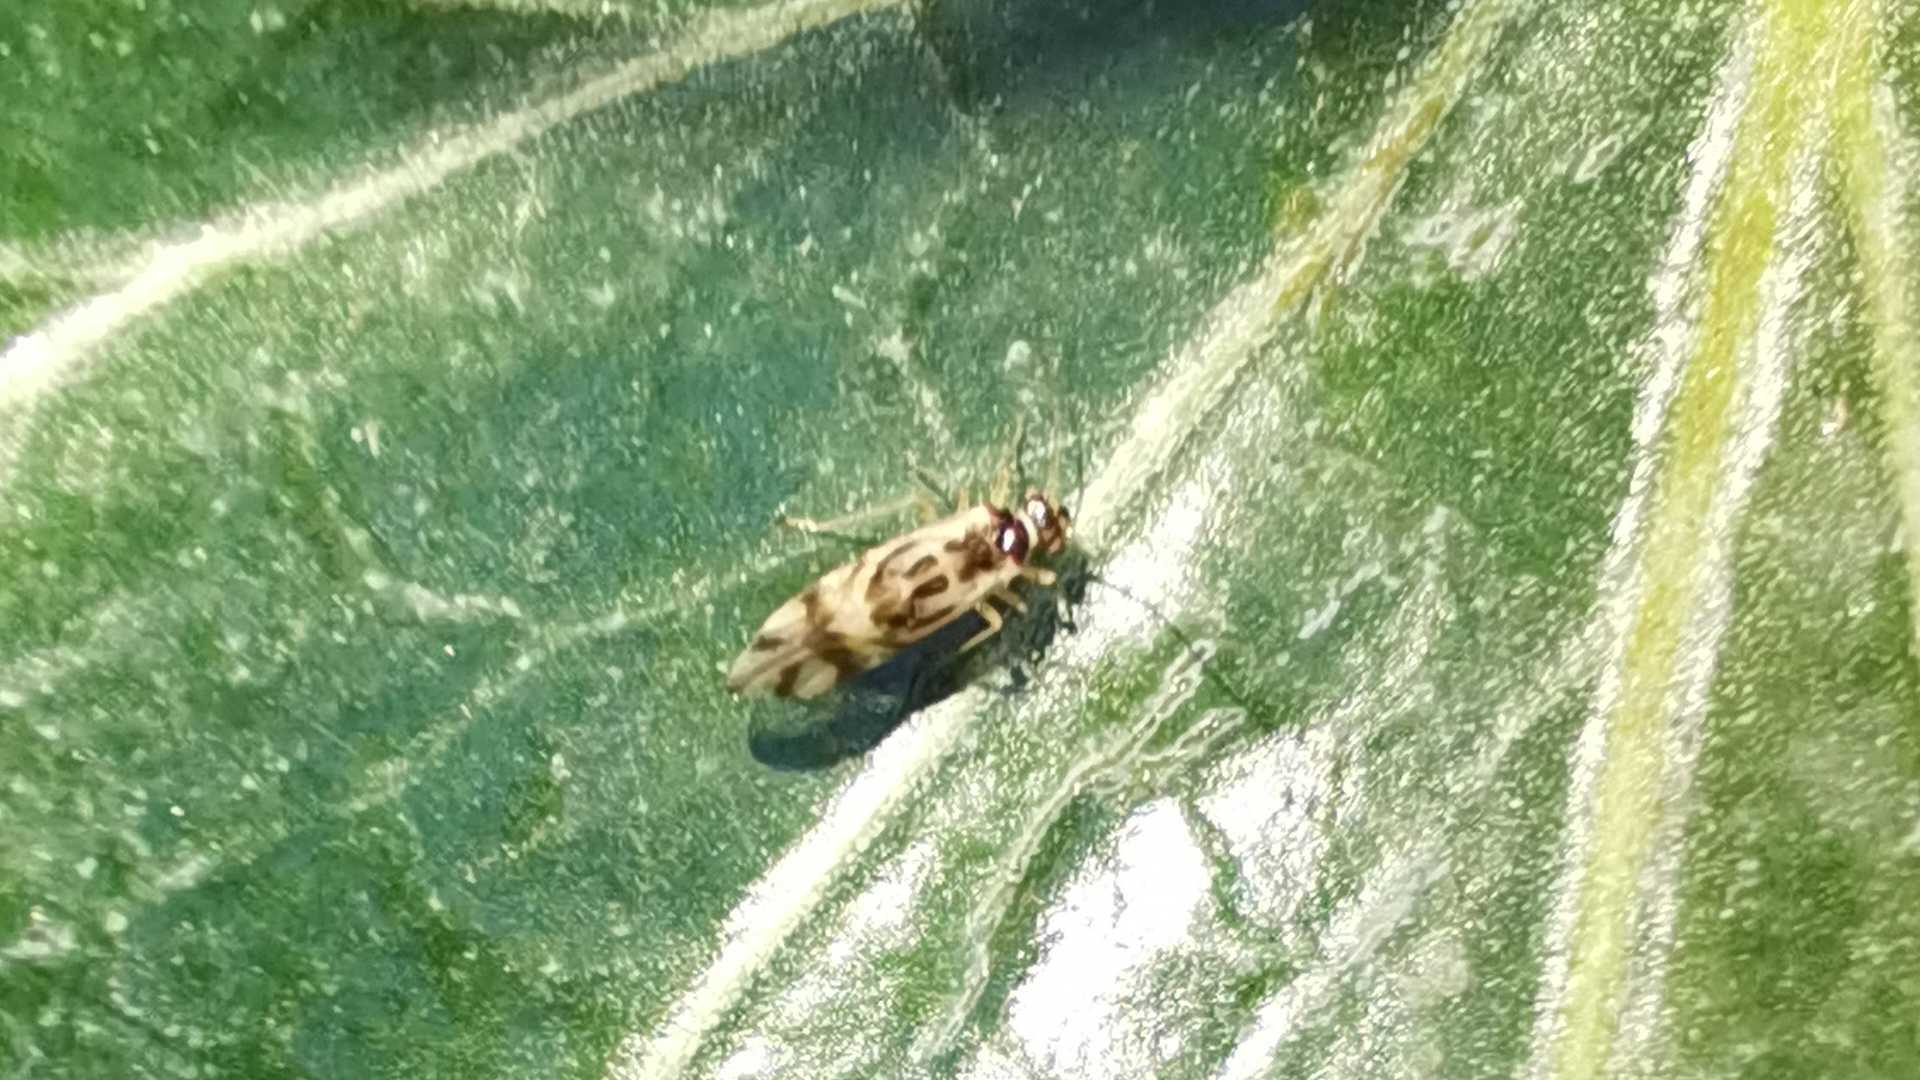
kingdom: Animalia
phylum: Arthropoda
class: Insecta
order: Psocodea
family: Stenopsocidae
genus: Graphopsocus
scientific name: Graphopsocus cruciatus
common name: Lizard bark louse
